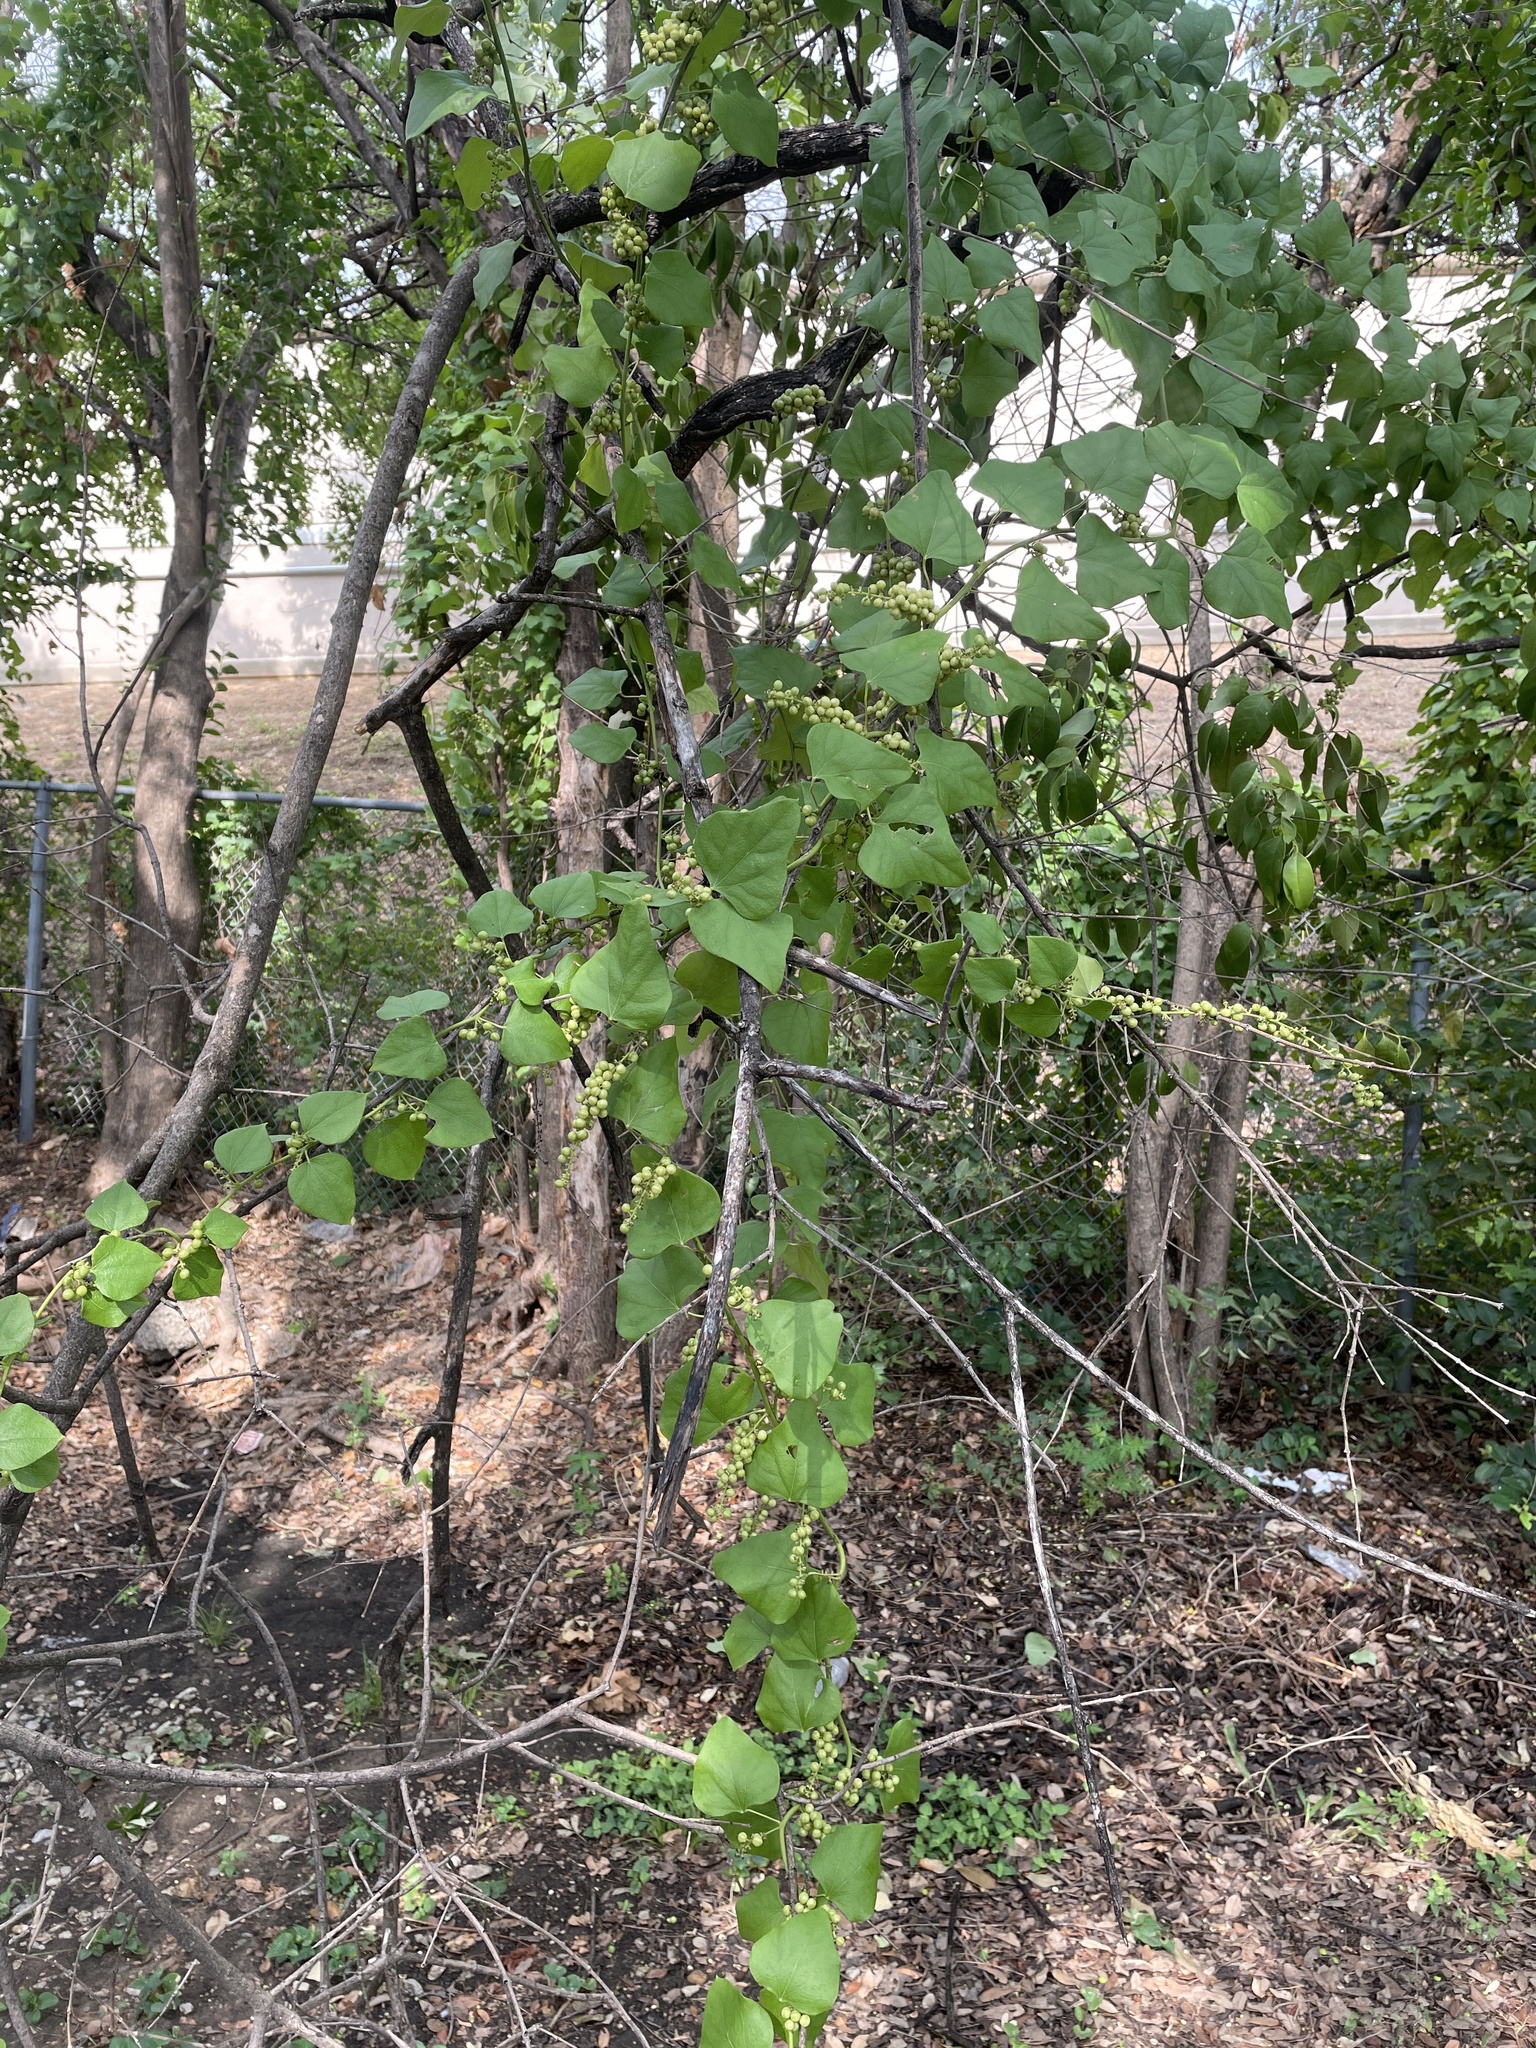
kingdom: Plantae
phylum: Tracheophyta
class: Magnoliopsida
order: Ranunculales
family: Menispermaceae
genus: Cocculus
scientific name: Cocculus carolinus
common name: Carolina moonseed
